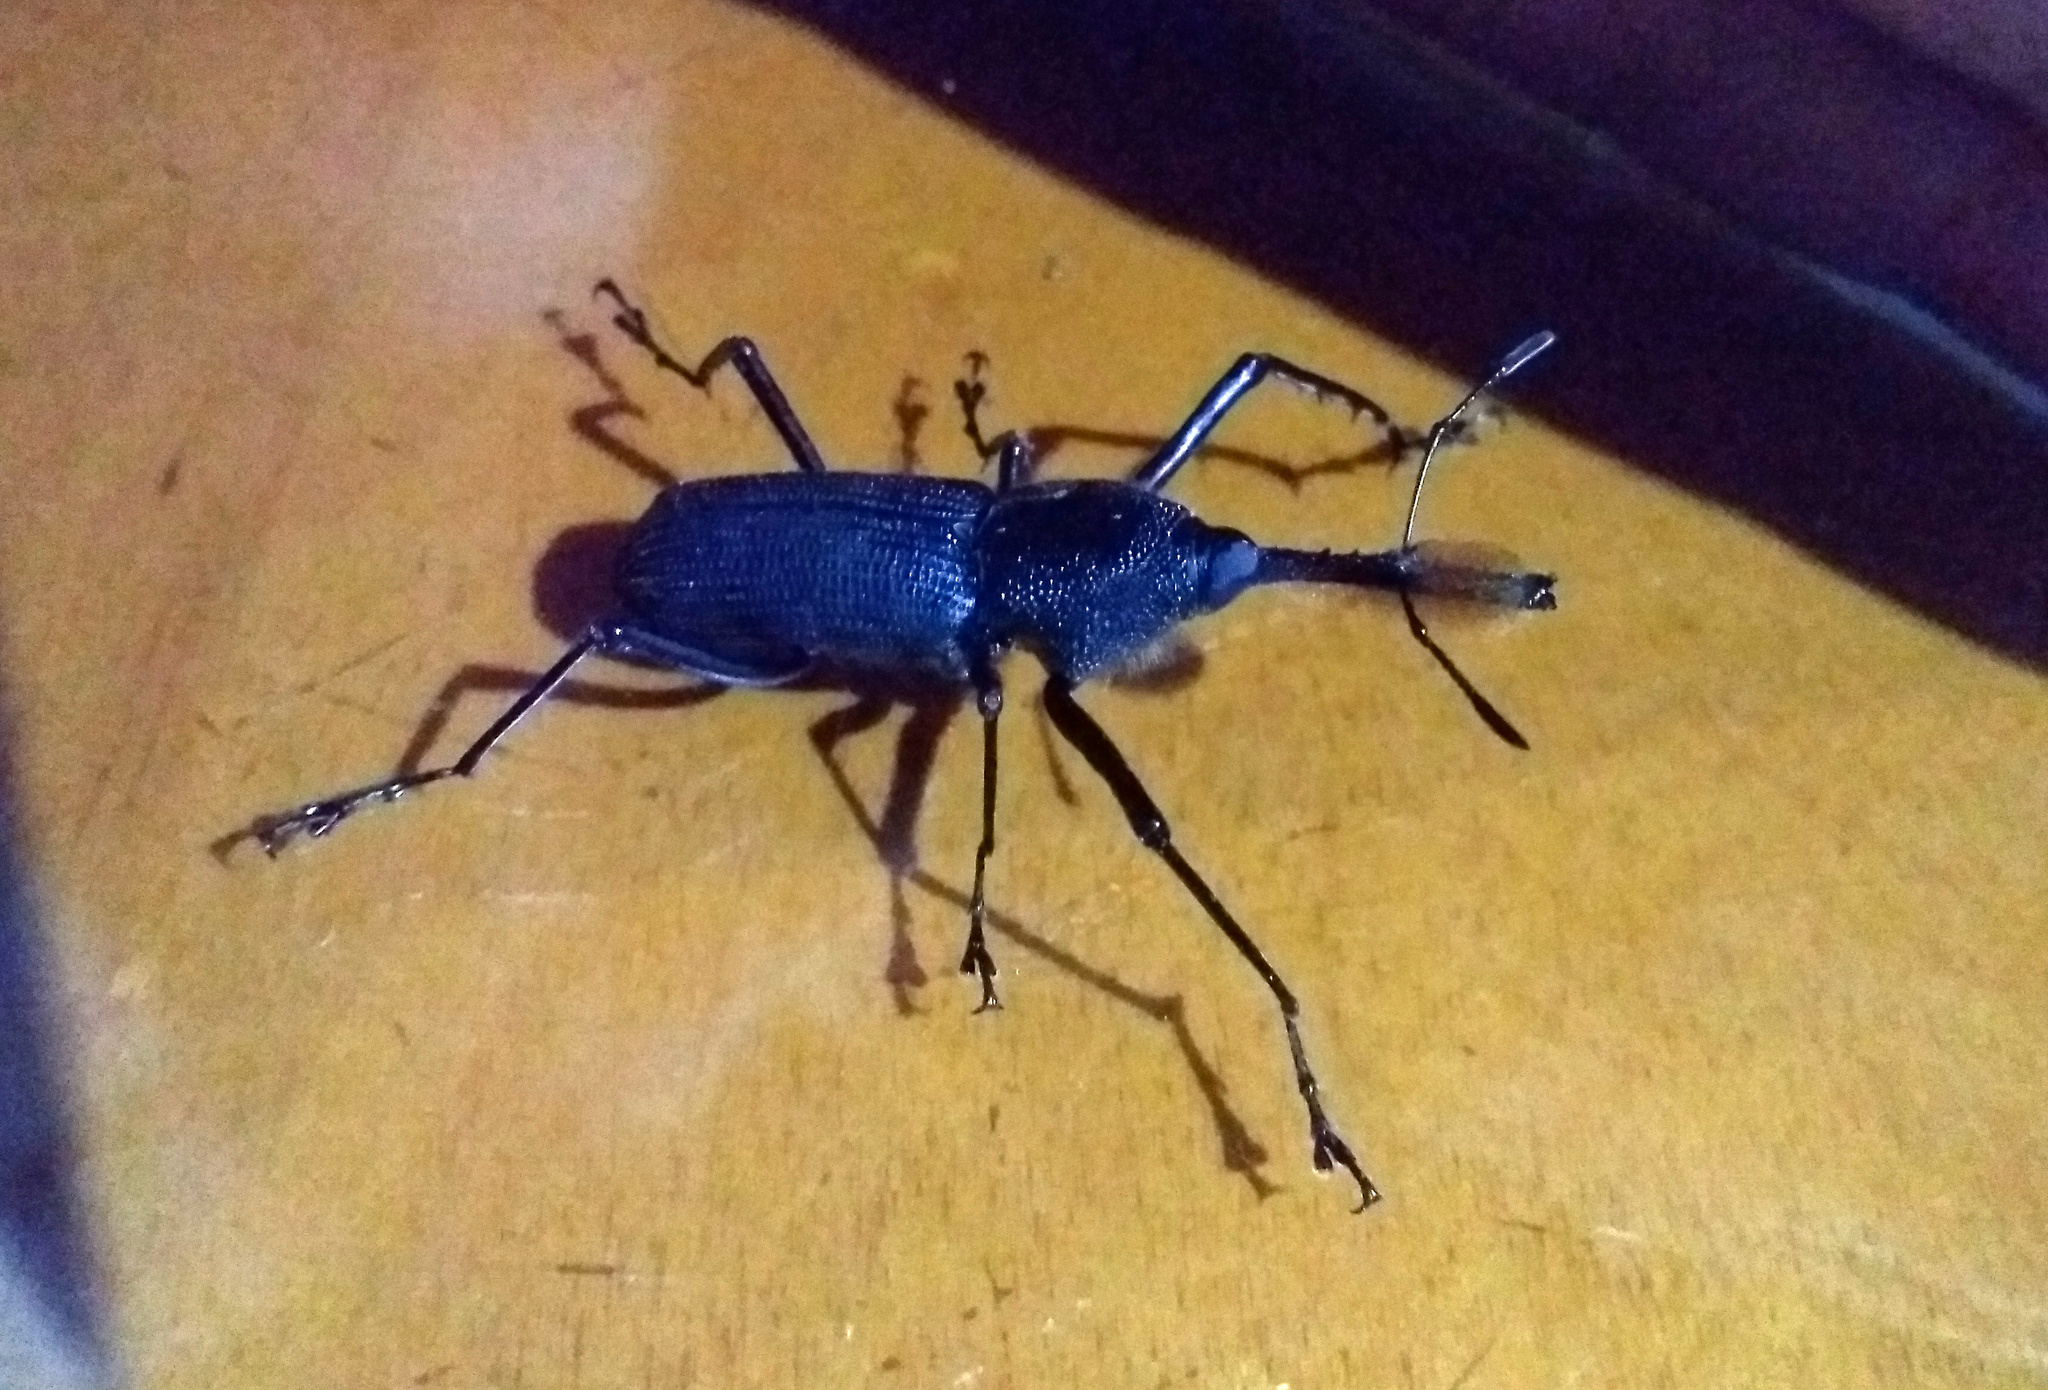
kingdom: Animalia
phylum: Arthropoda
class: Insecta
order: Coleoptera
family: Dryophthoridae
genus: Rhinostomus
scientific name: Rhinostomus barbirostris
